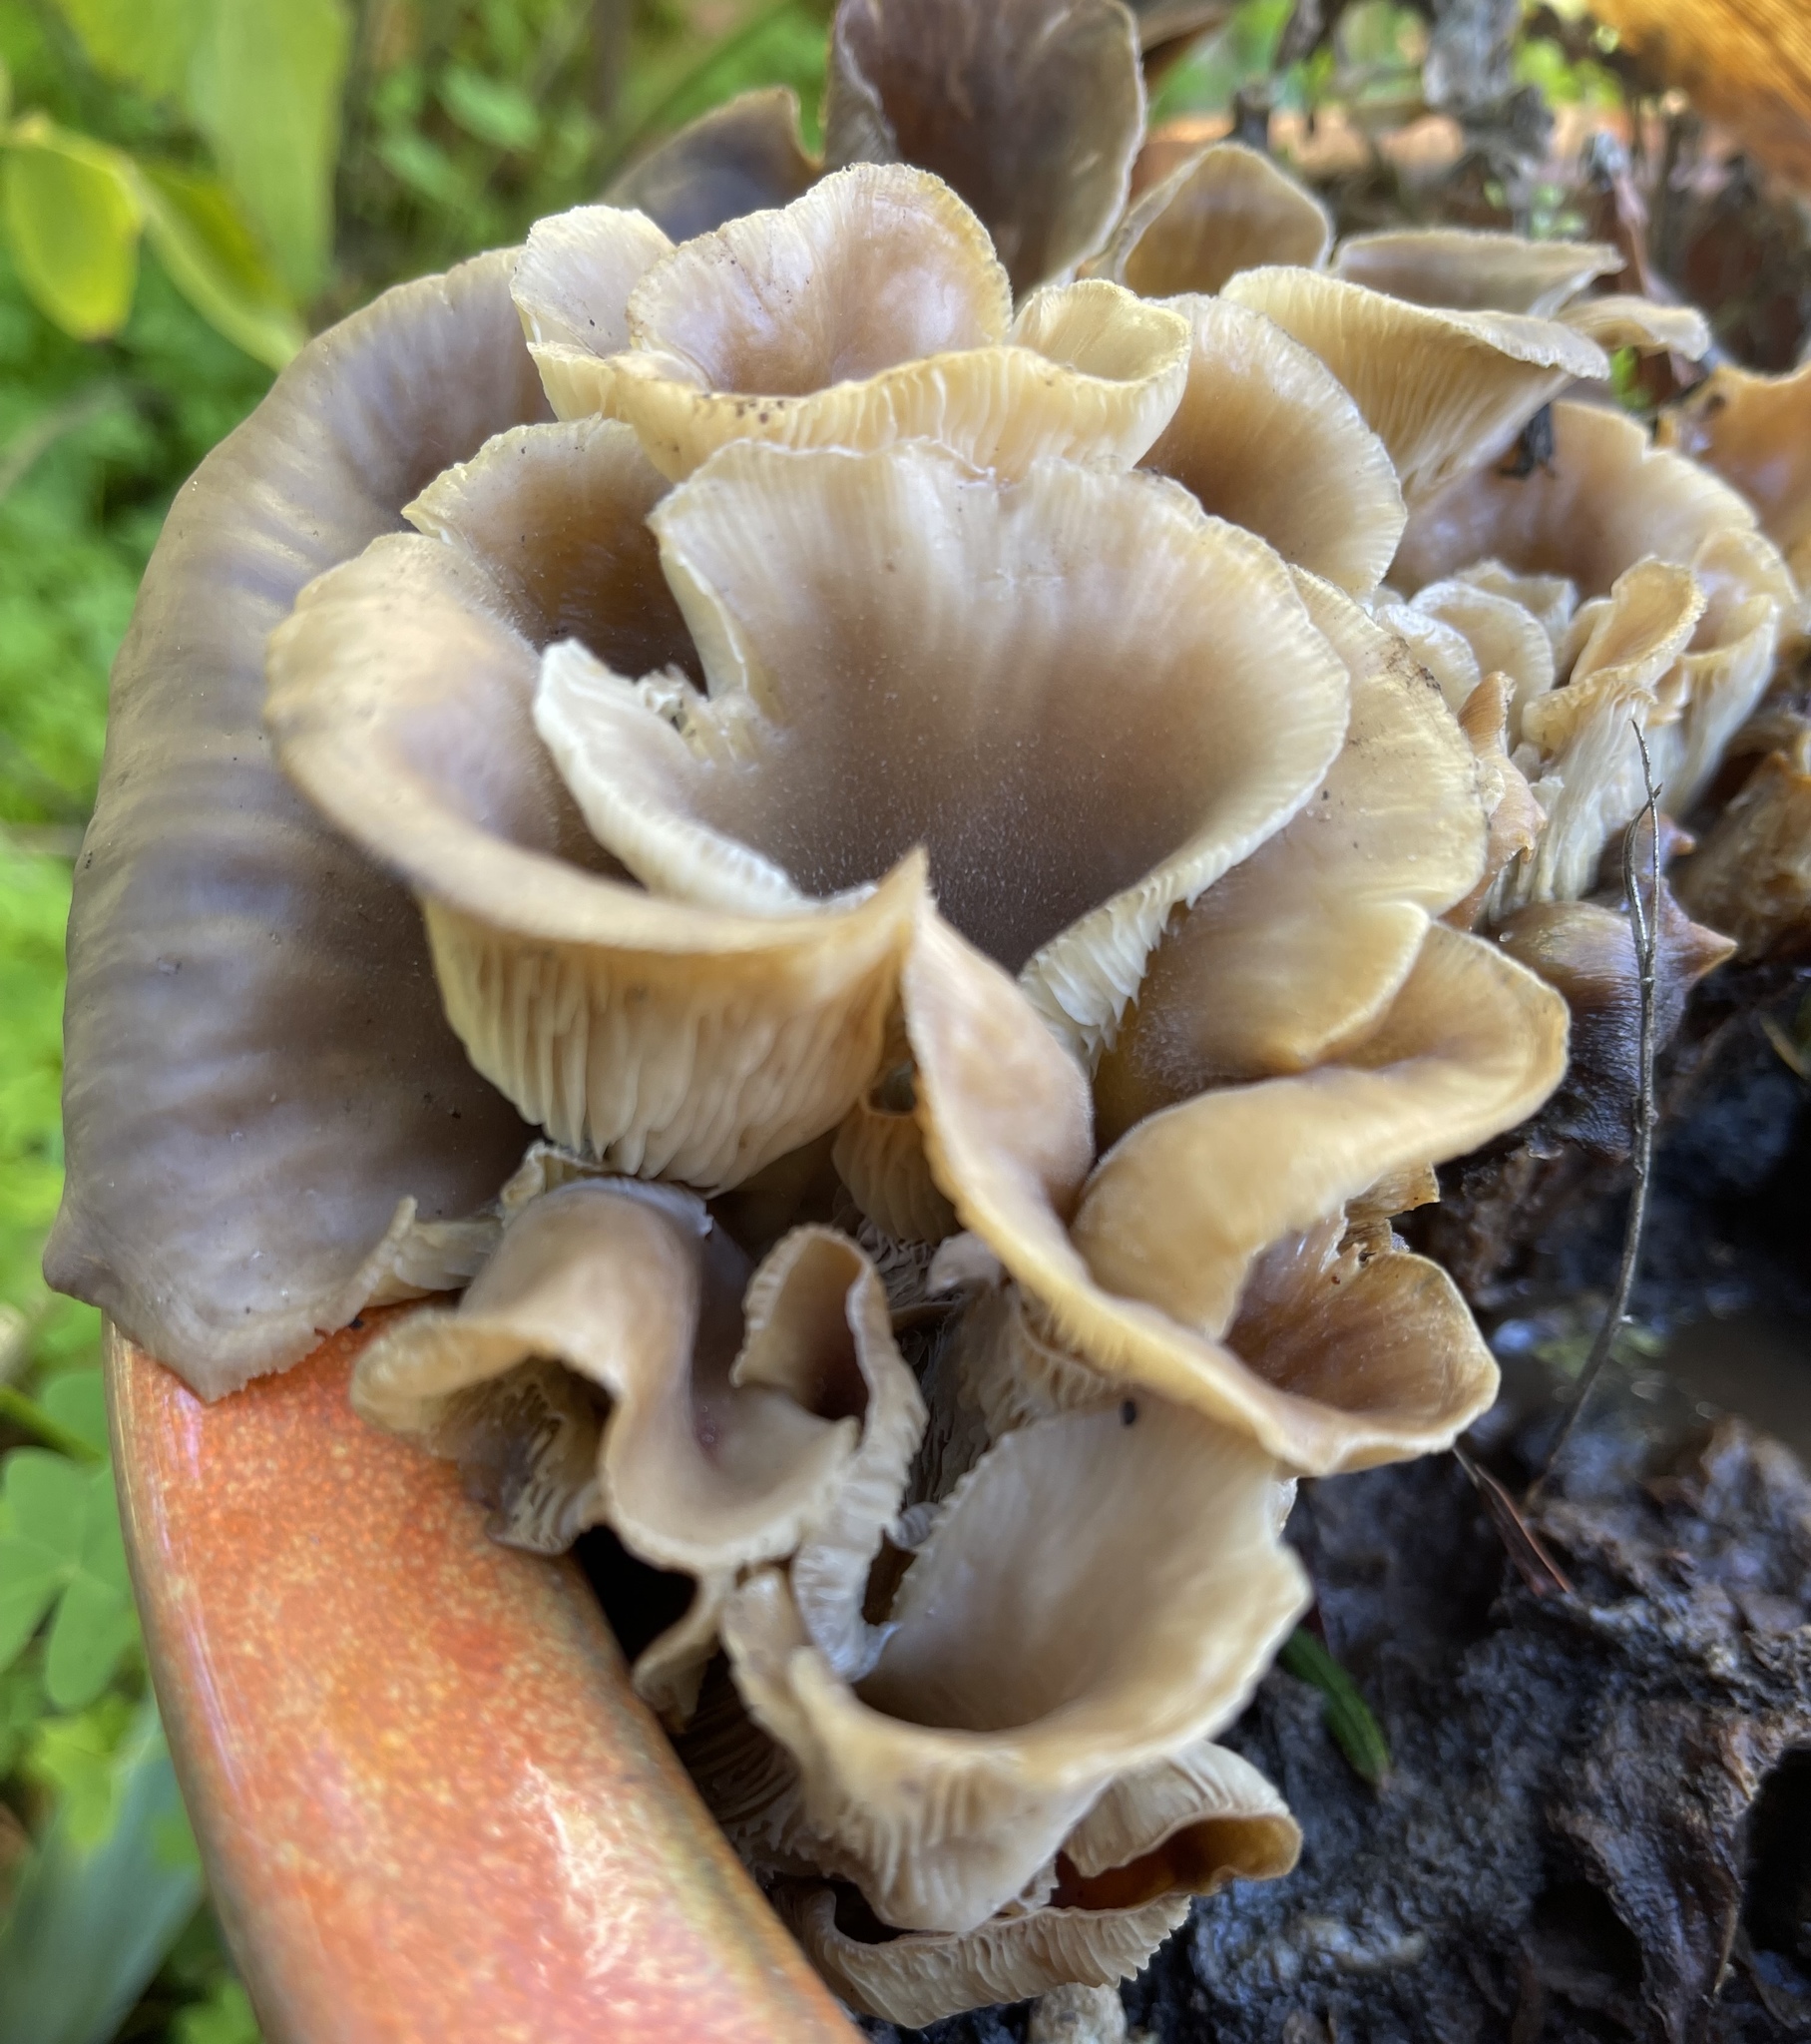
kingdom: Fungi
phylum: Basidiomycota
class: Agaricomycetes
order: Agaricales
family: Pleurotaceae
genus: Hohenbuehelia
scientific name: Hohenbuehelia petaloides
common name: Shoehorn oyster
